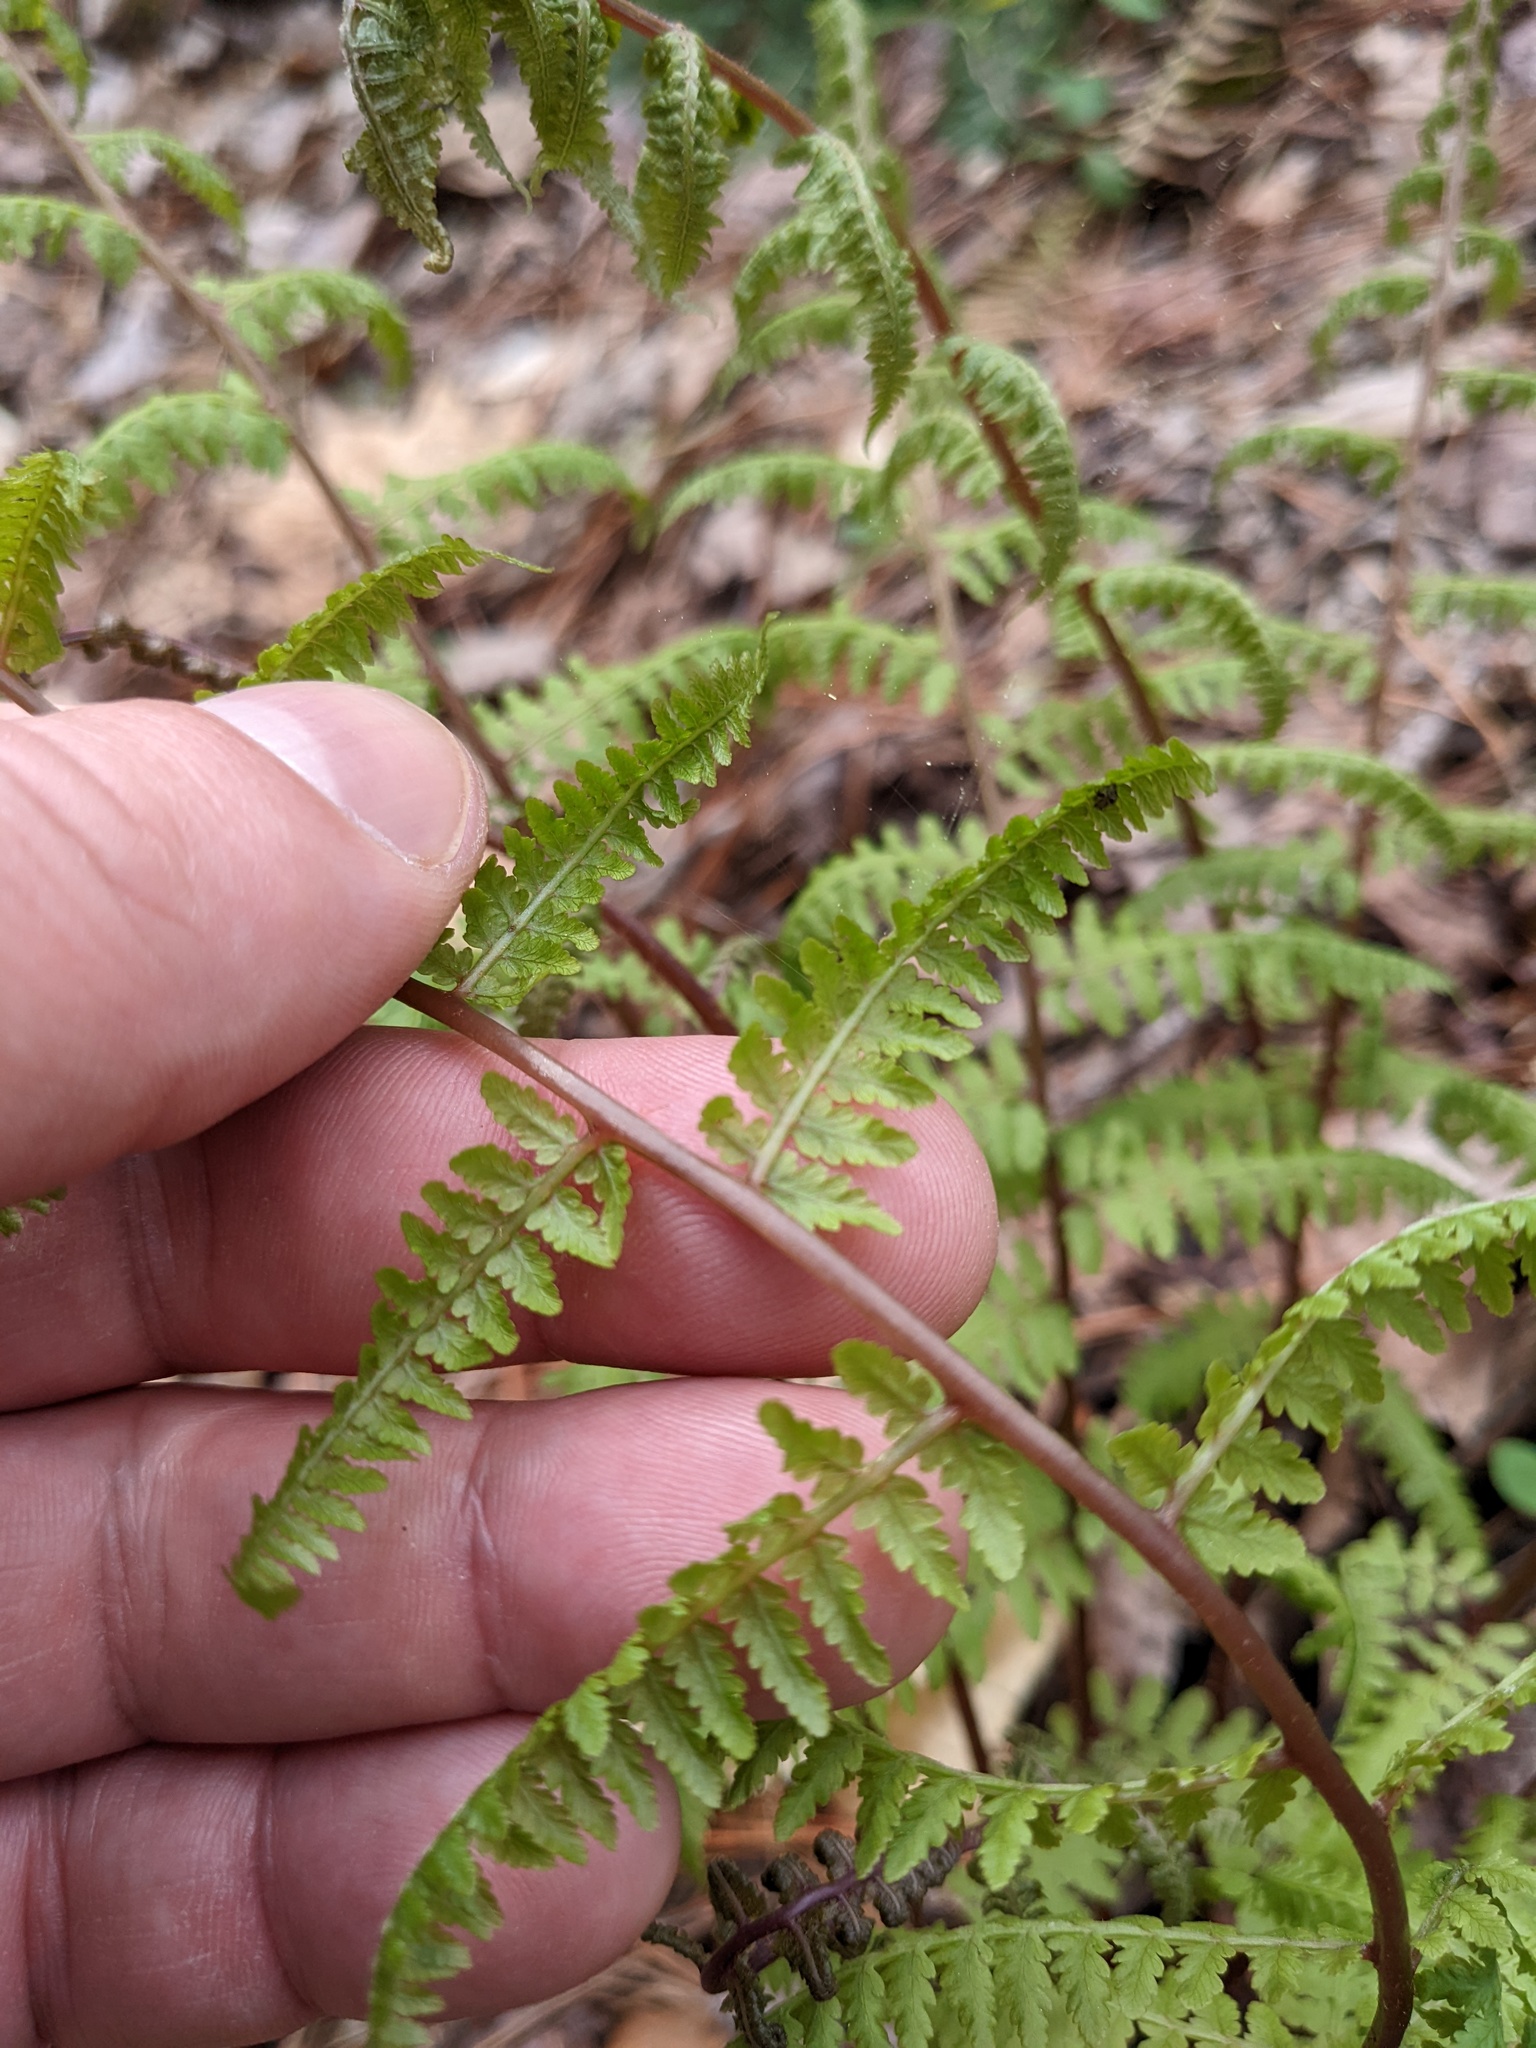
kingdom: Plantae
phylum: Tracheophyta
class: Polypodiopsida
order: Polypodiales
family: Athyriaceae
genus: Athyrium
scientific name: Athyrium asplenioides
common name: Southern lady fern
